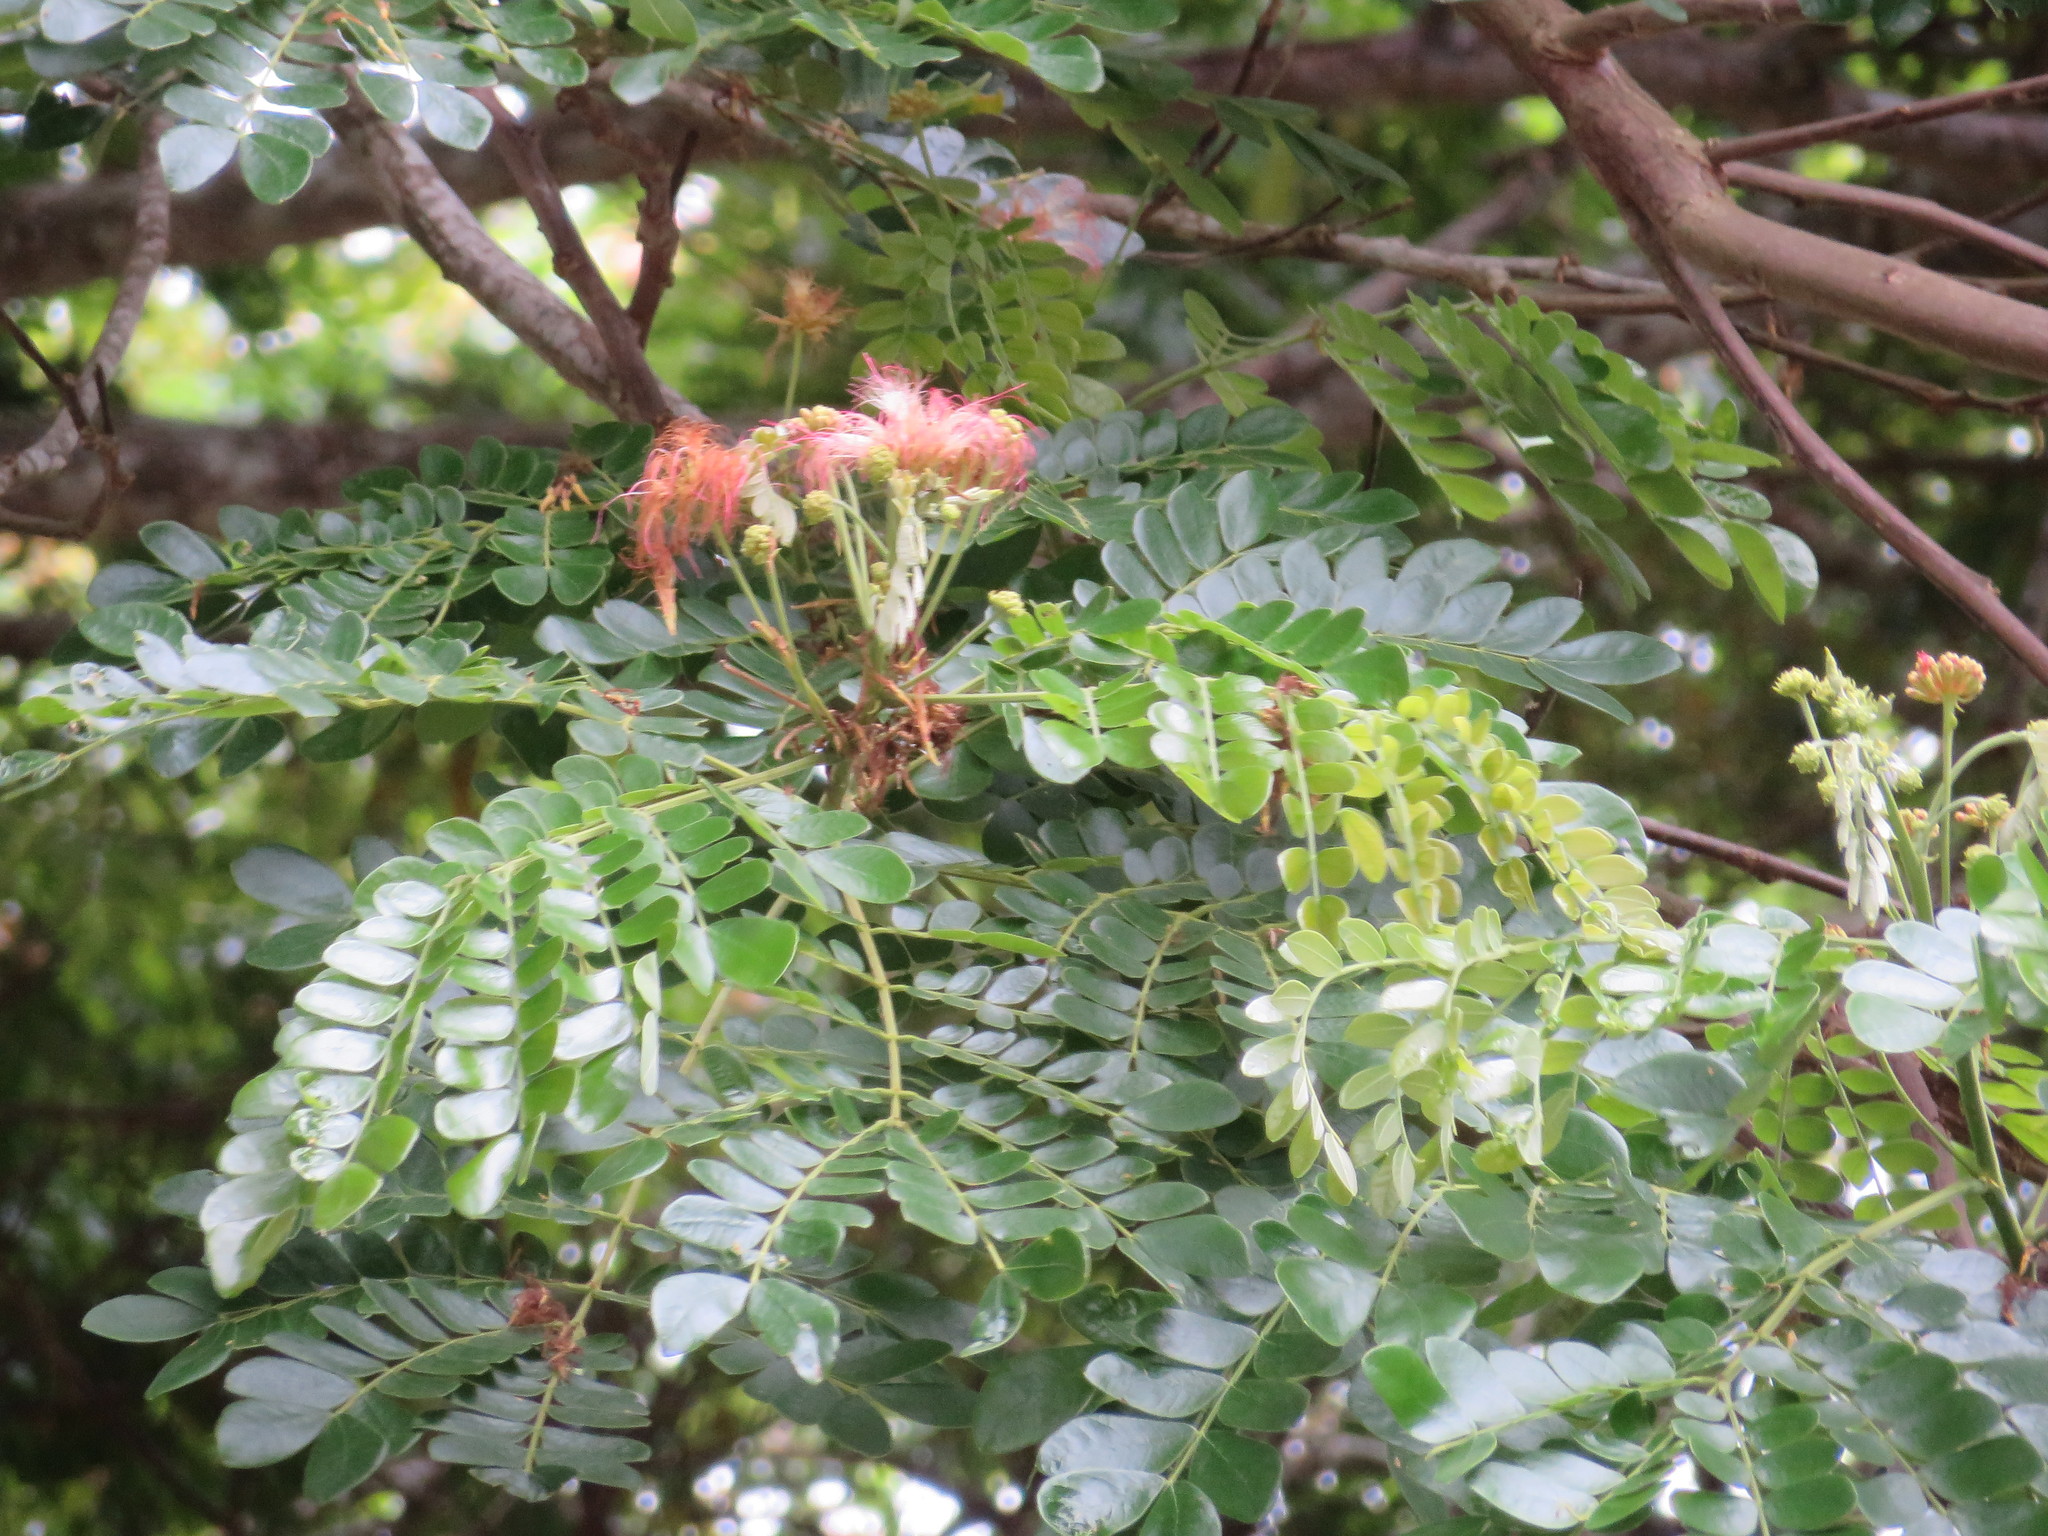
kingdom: Plantae
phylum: Tracheophyta
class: Magnoliopsida
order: Fabales
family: Fabaceae
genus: Samanea
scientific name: Samanea saman
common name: Raintree
